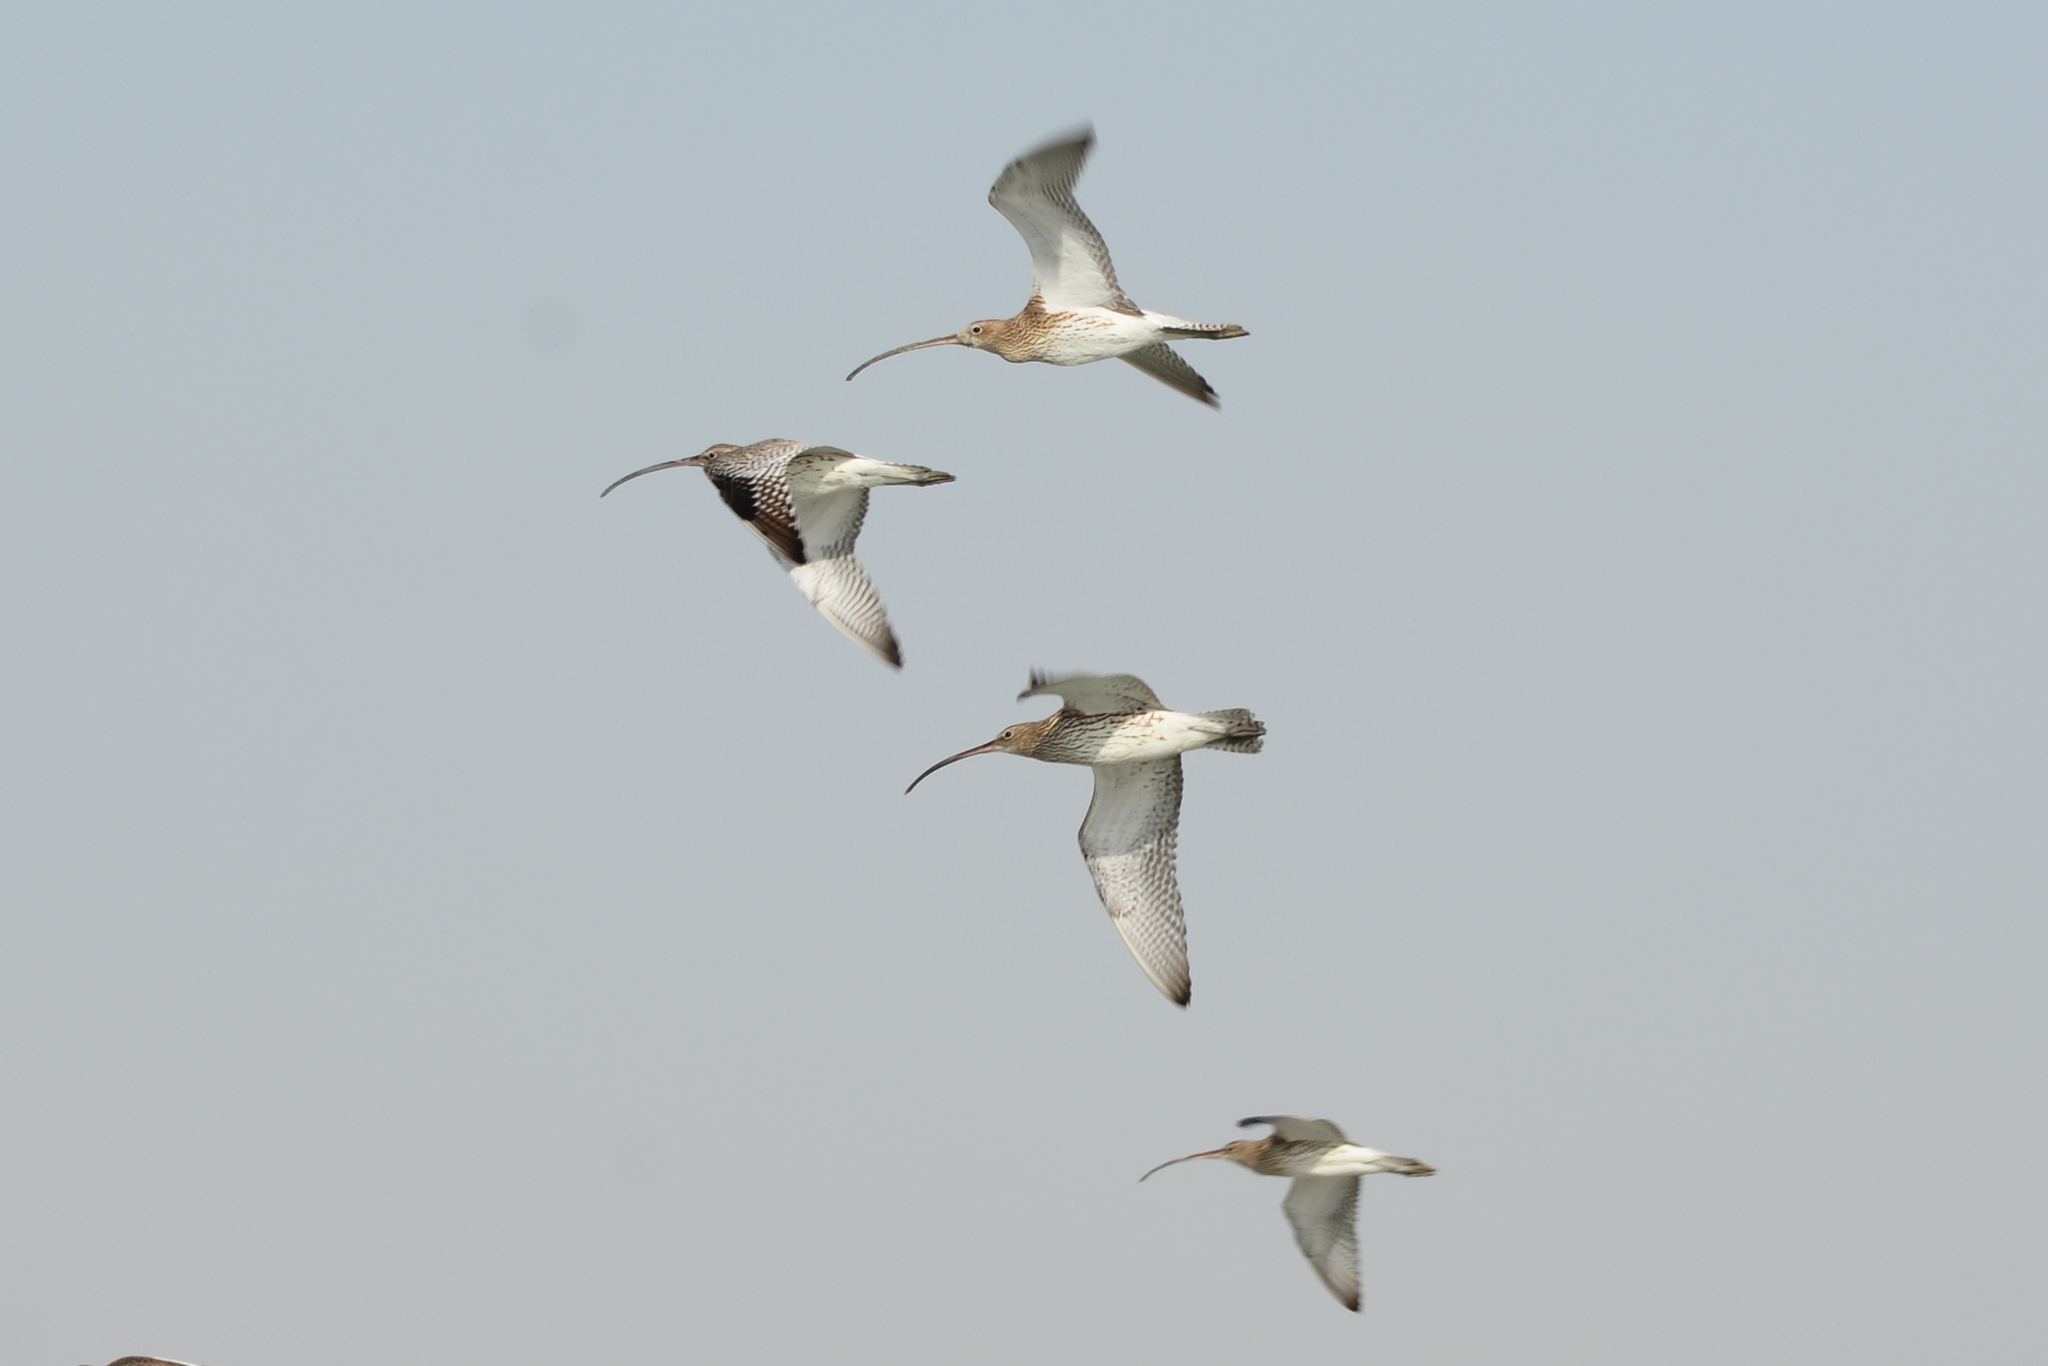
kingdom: Animalia
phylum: Chordata
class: Aves
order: Charadriiformes
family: Scolopacidae
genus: Numenius
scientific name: Numenius arquata
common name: Eurasian curlew
